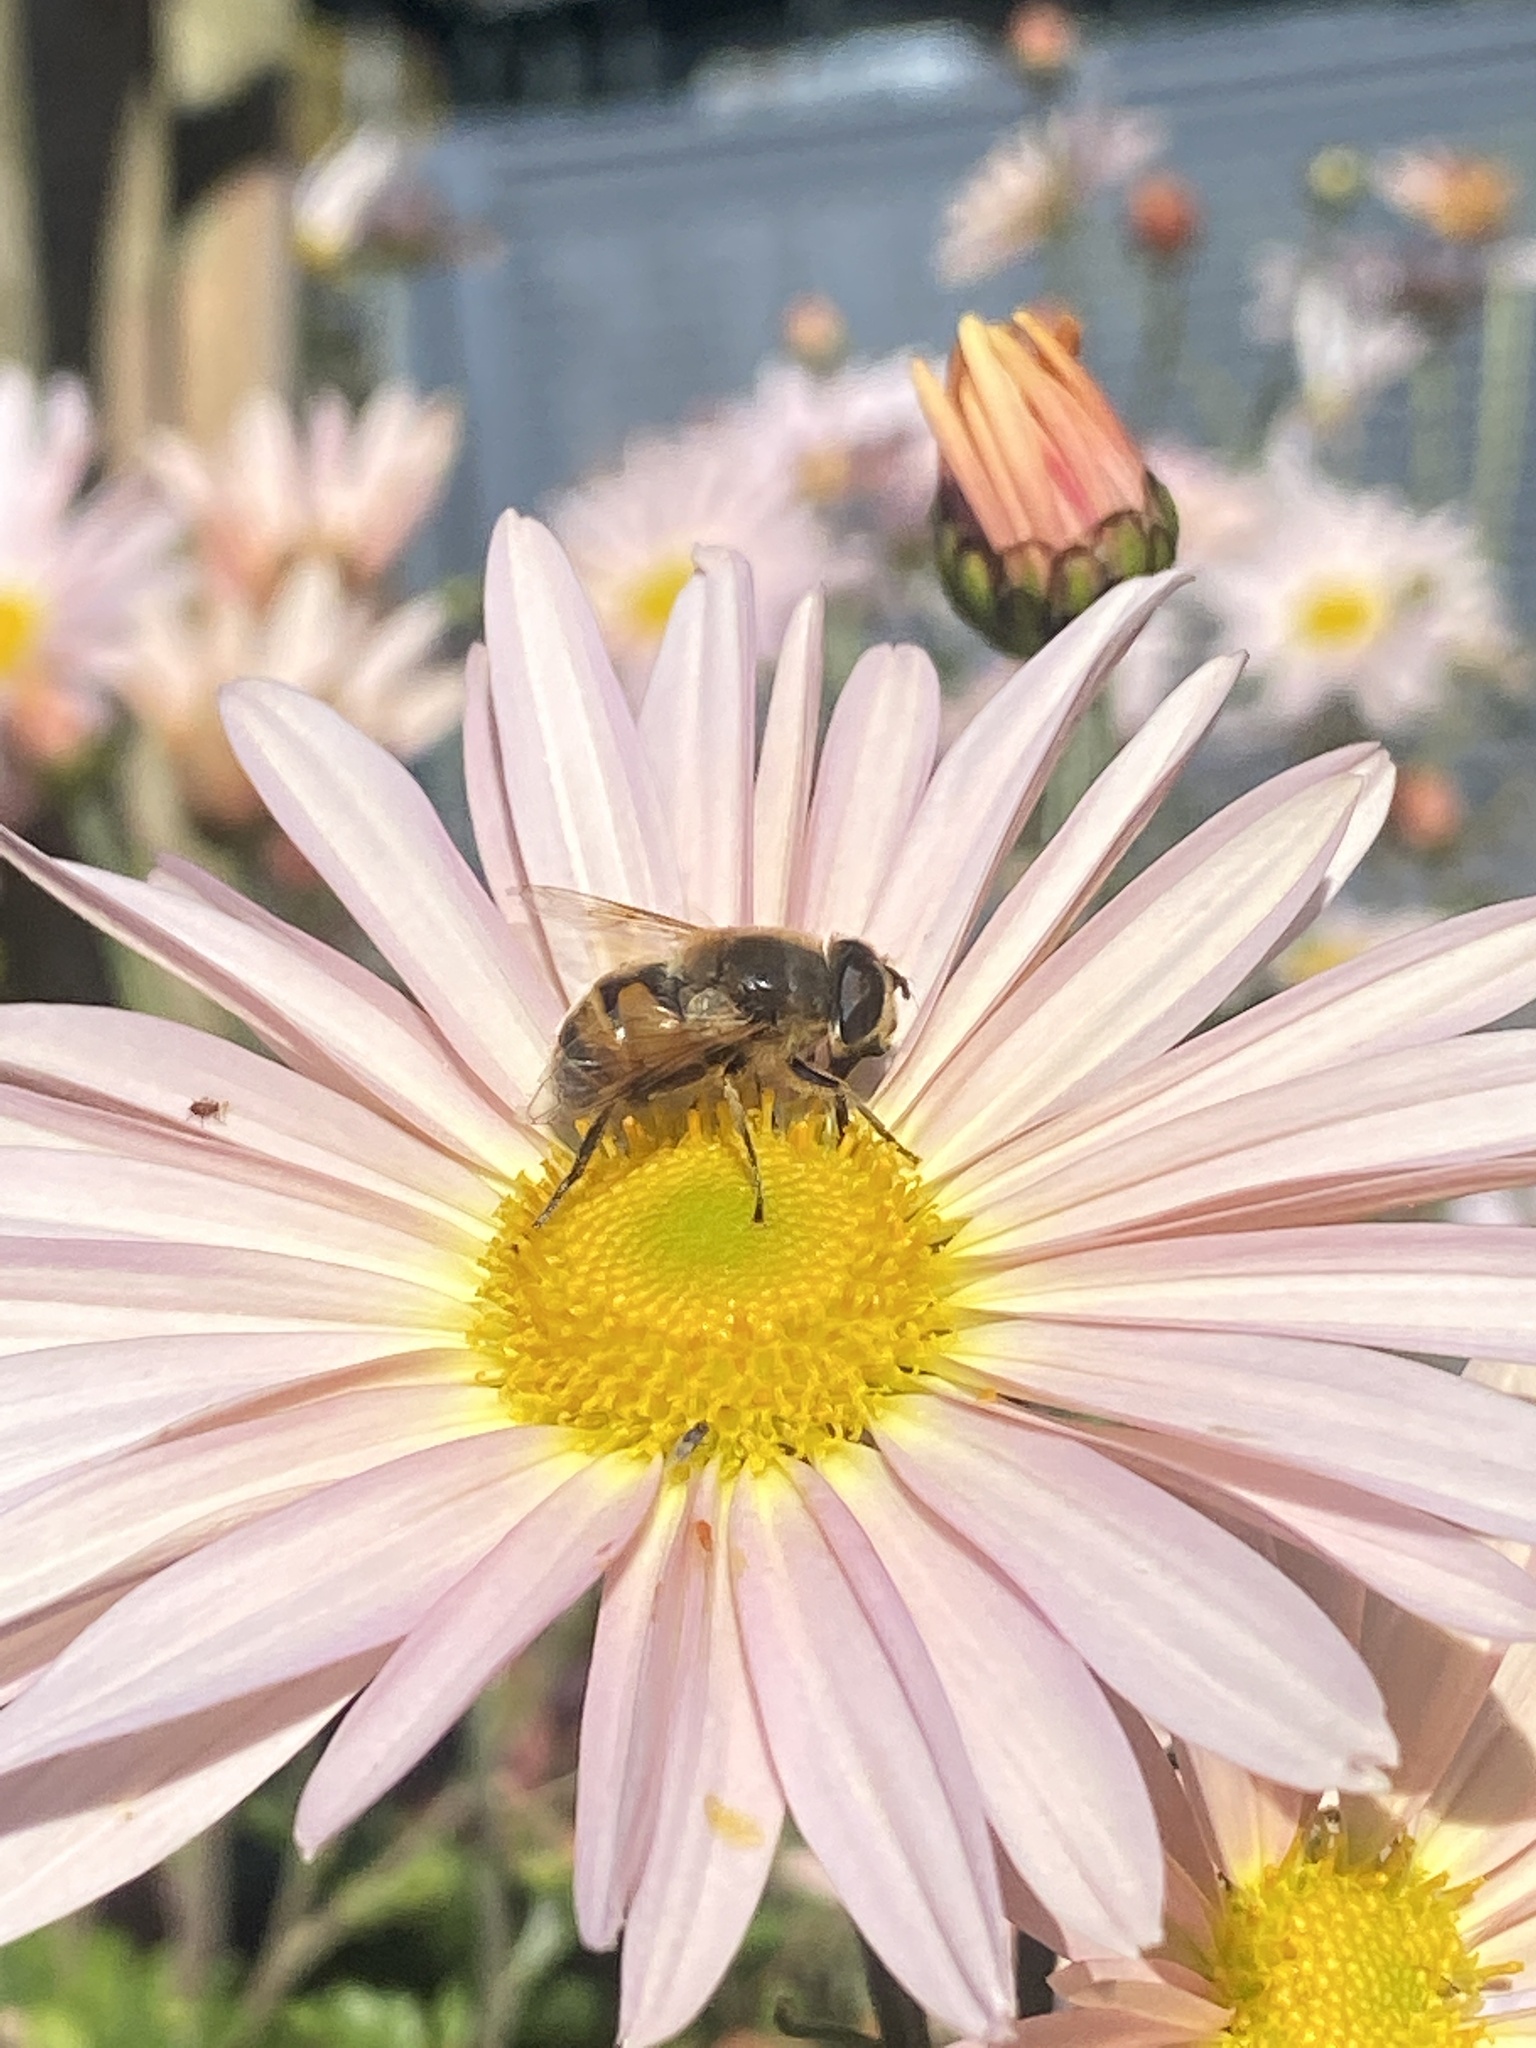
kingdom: Animalia
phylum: Arthropoda
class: Insecta
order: Diptera
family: Syrphidae
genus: Eristalis
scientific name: Eristalis tenax
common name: Drone fly
